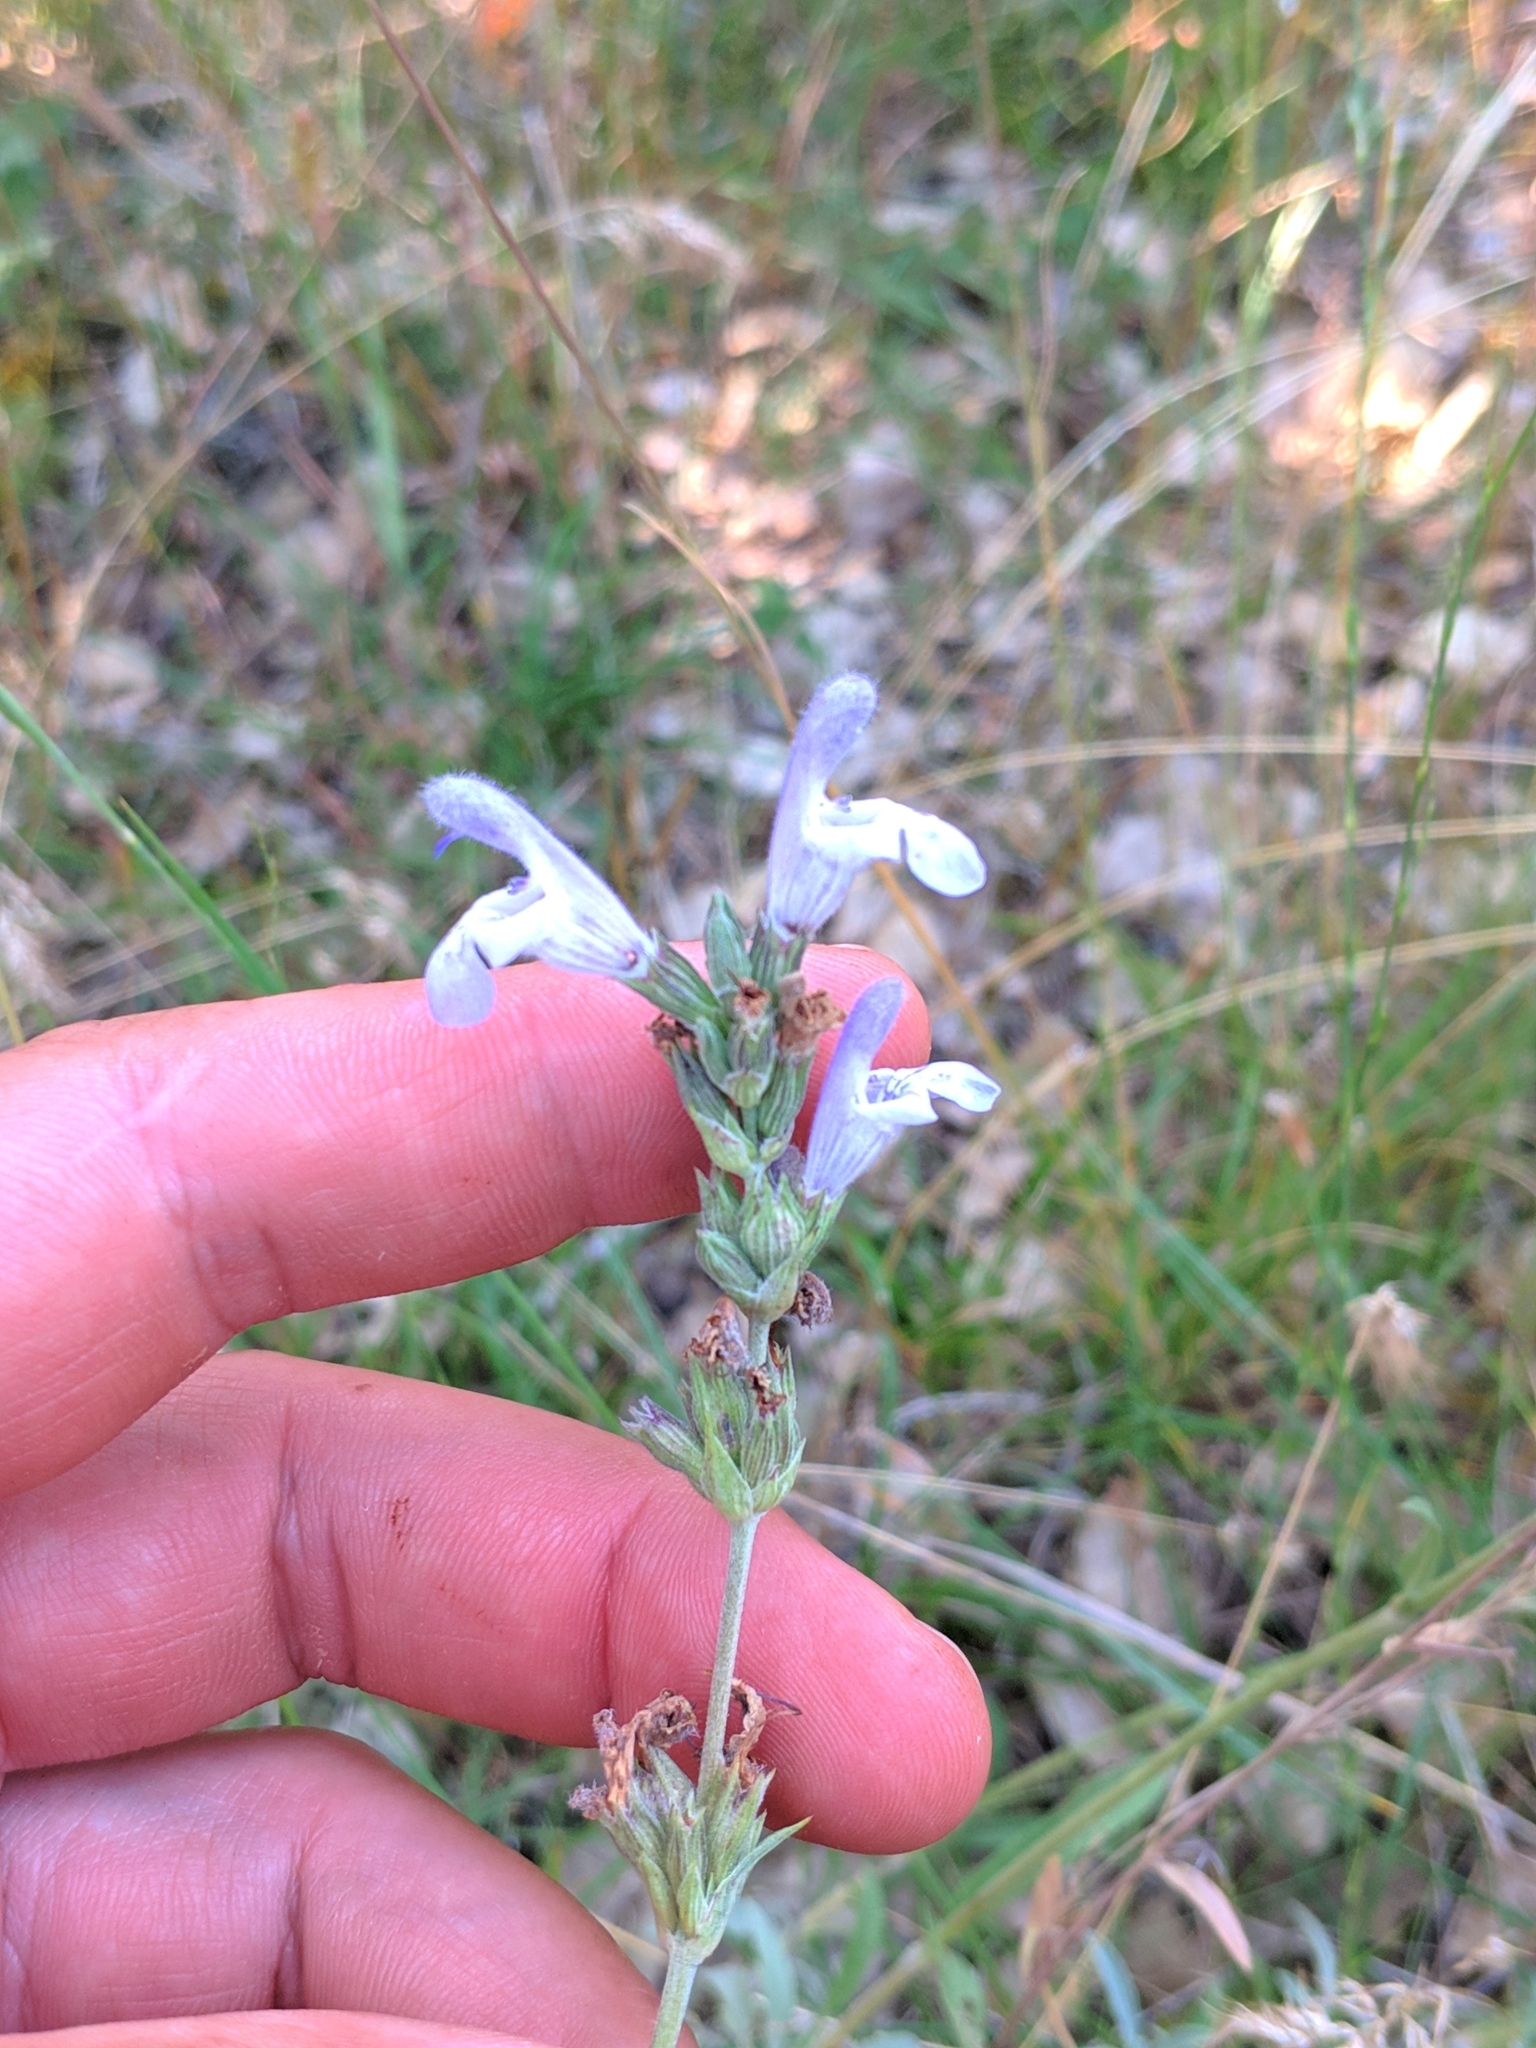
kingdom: Plantae
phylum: Tracheophyta
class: Magnoliopsida
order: Lamiales
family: Lamiaceae
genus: Salvia
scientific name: Salvia officinalis
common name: Sage
